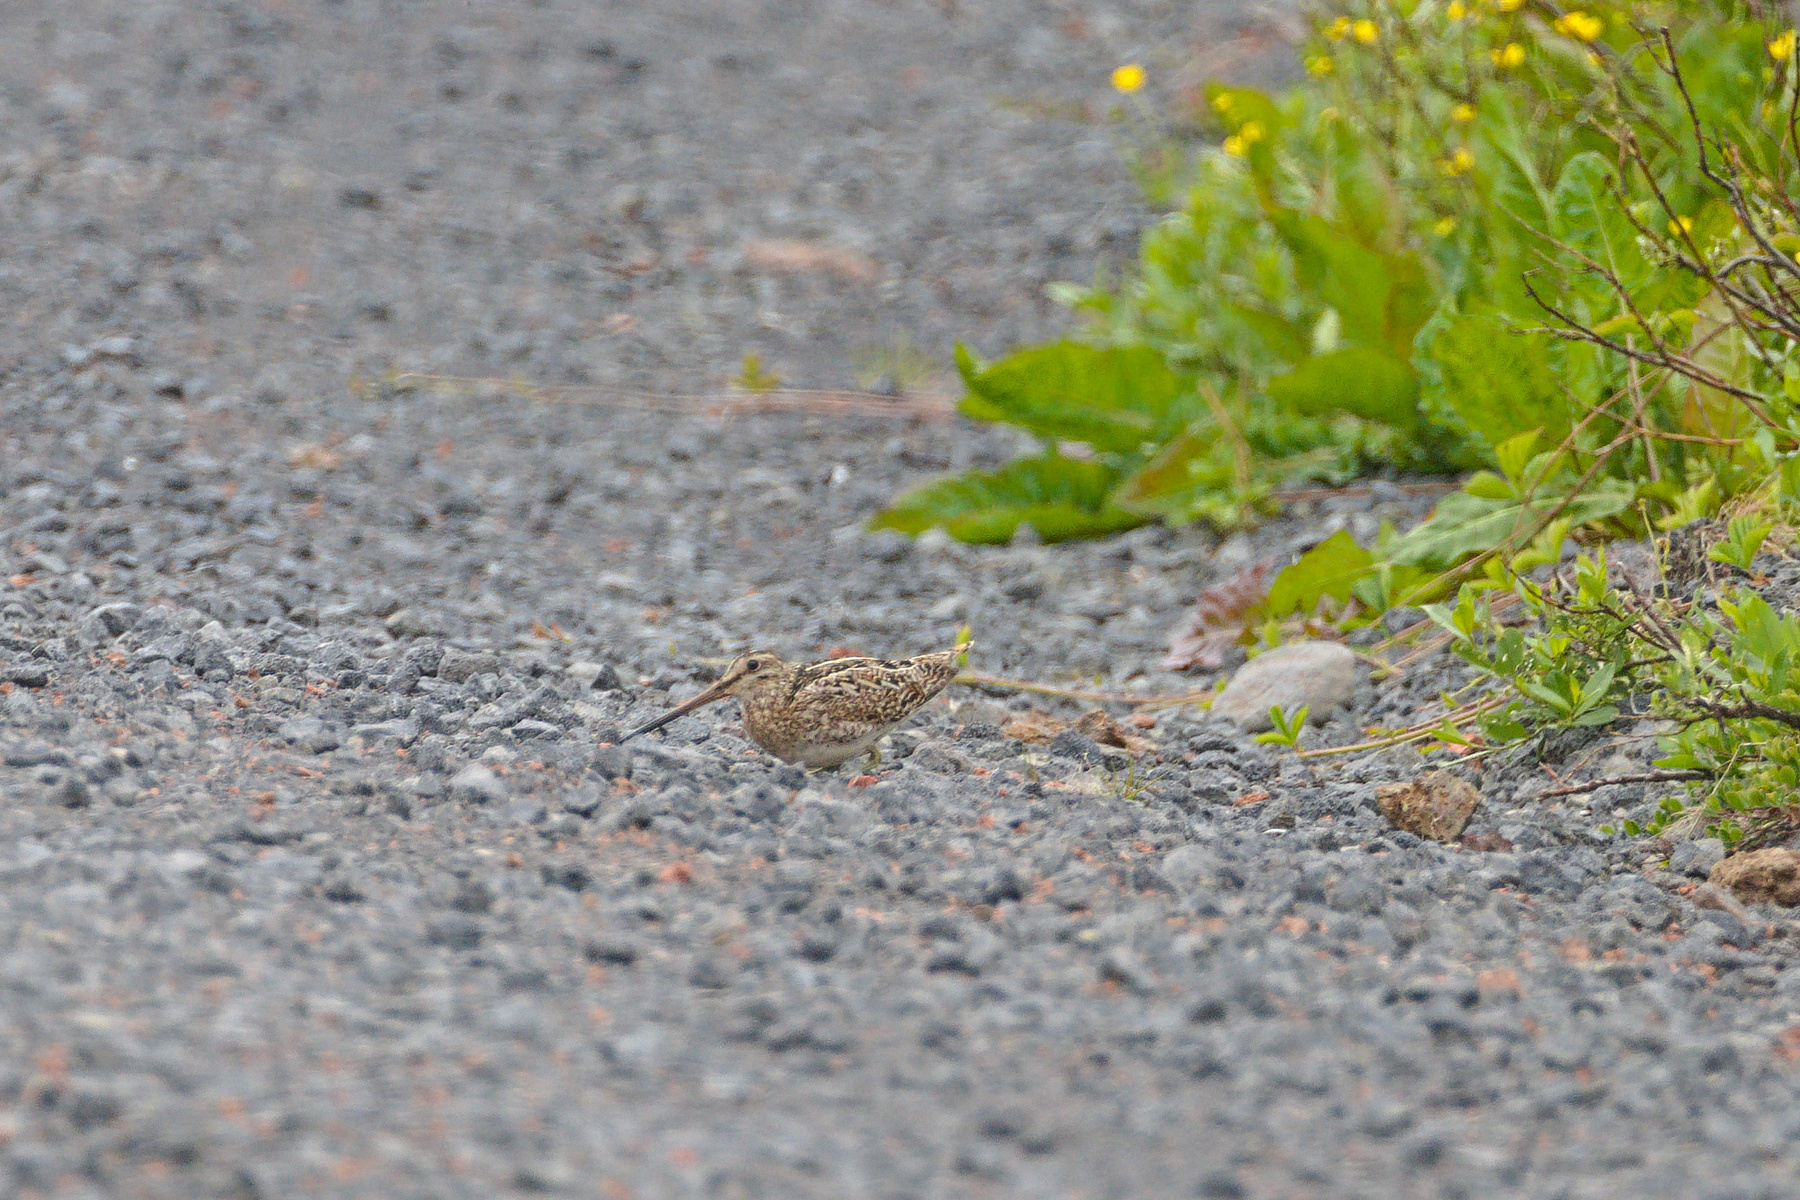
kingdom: Animalia
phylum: Chordata
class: Aves
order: Charadriiformes
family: Scolopacidae
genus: Gallinago
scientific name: Gallinago gallinago
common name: Common snipe
